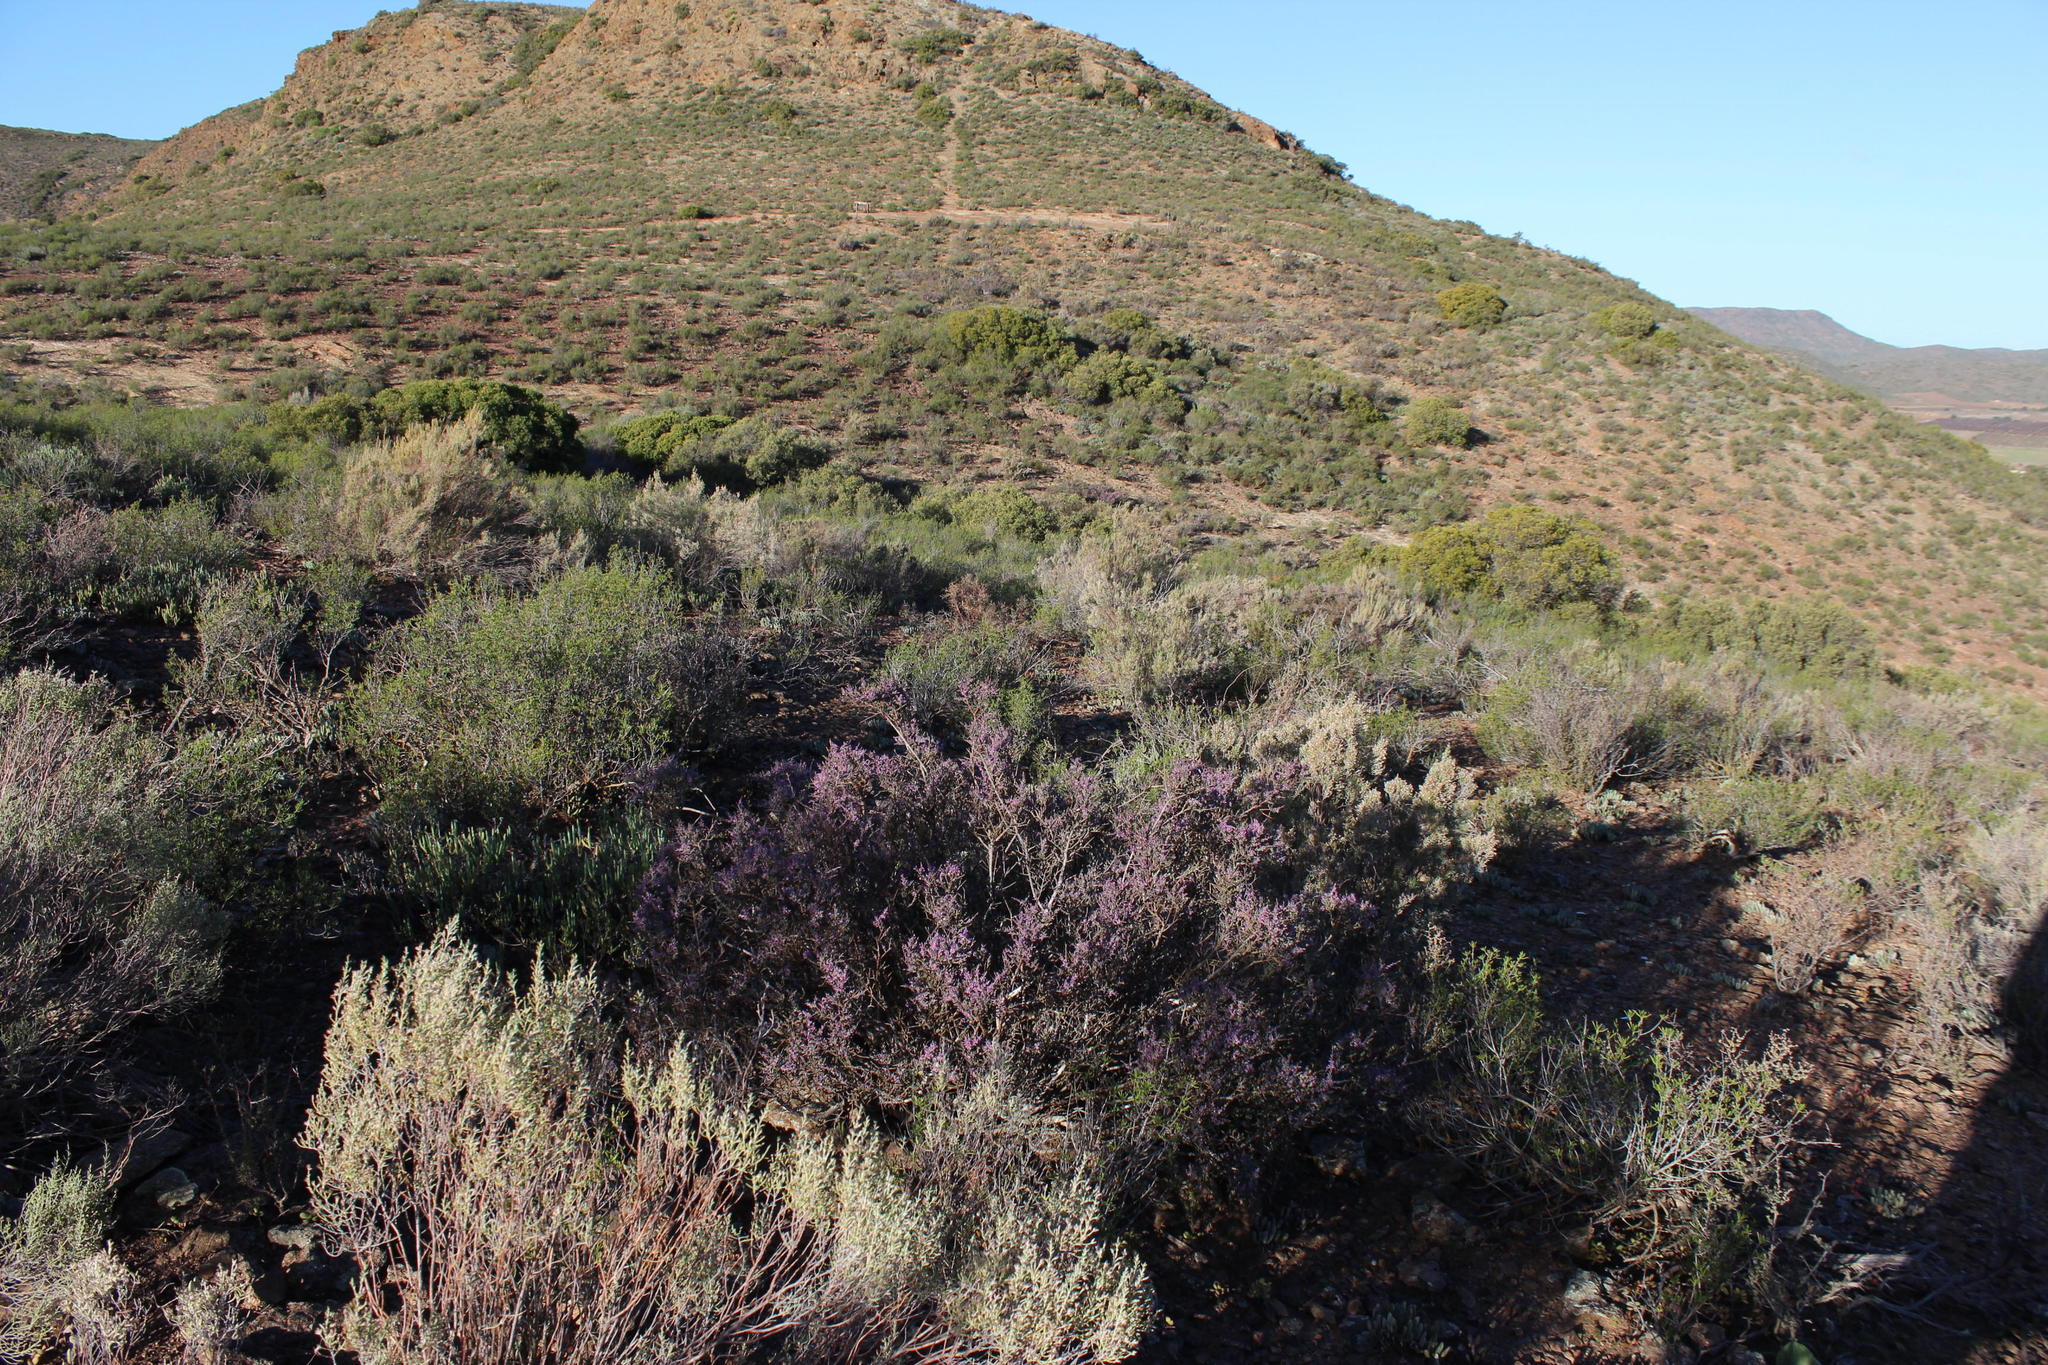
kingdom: Plantae
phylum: Tracheophyta
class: Magnoliopsida
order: Fabales
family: Polygalaceae
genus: Muraltia
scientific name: Muraltia spinosa
